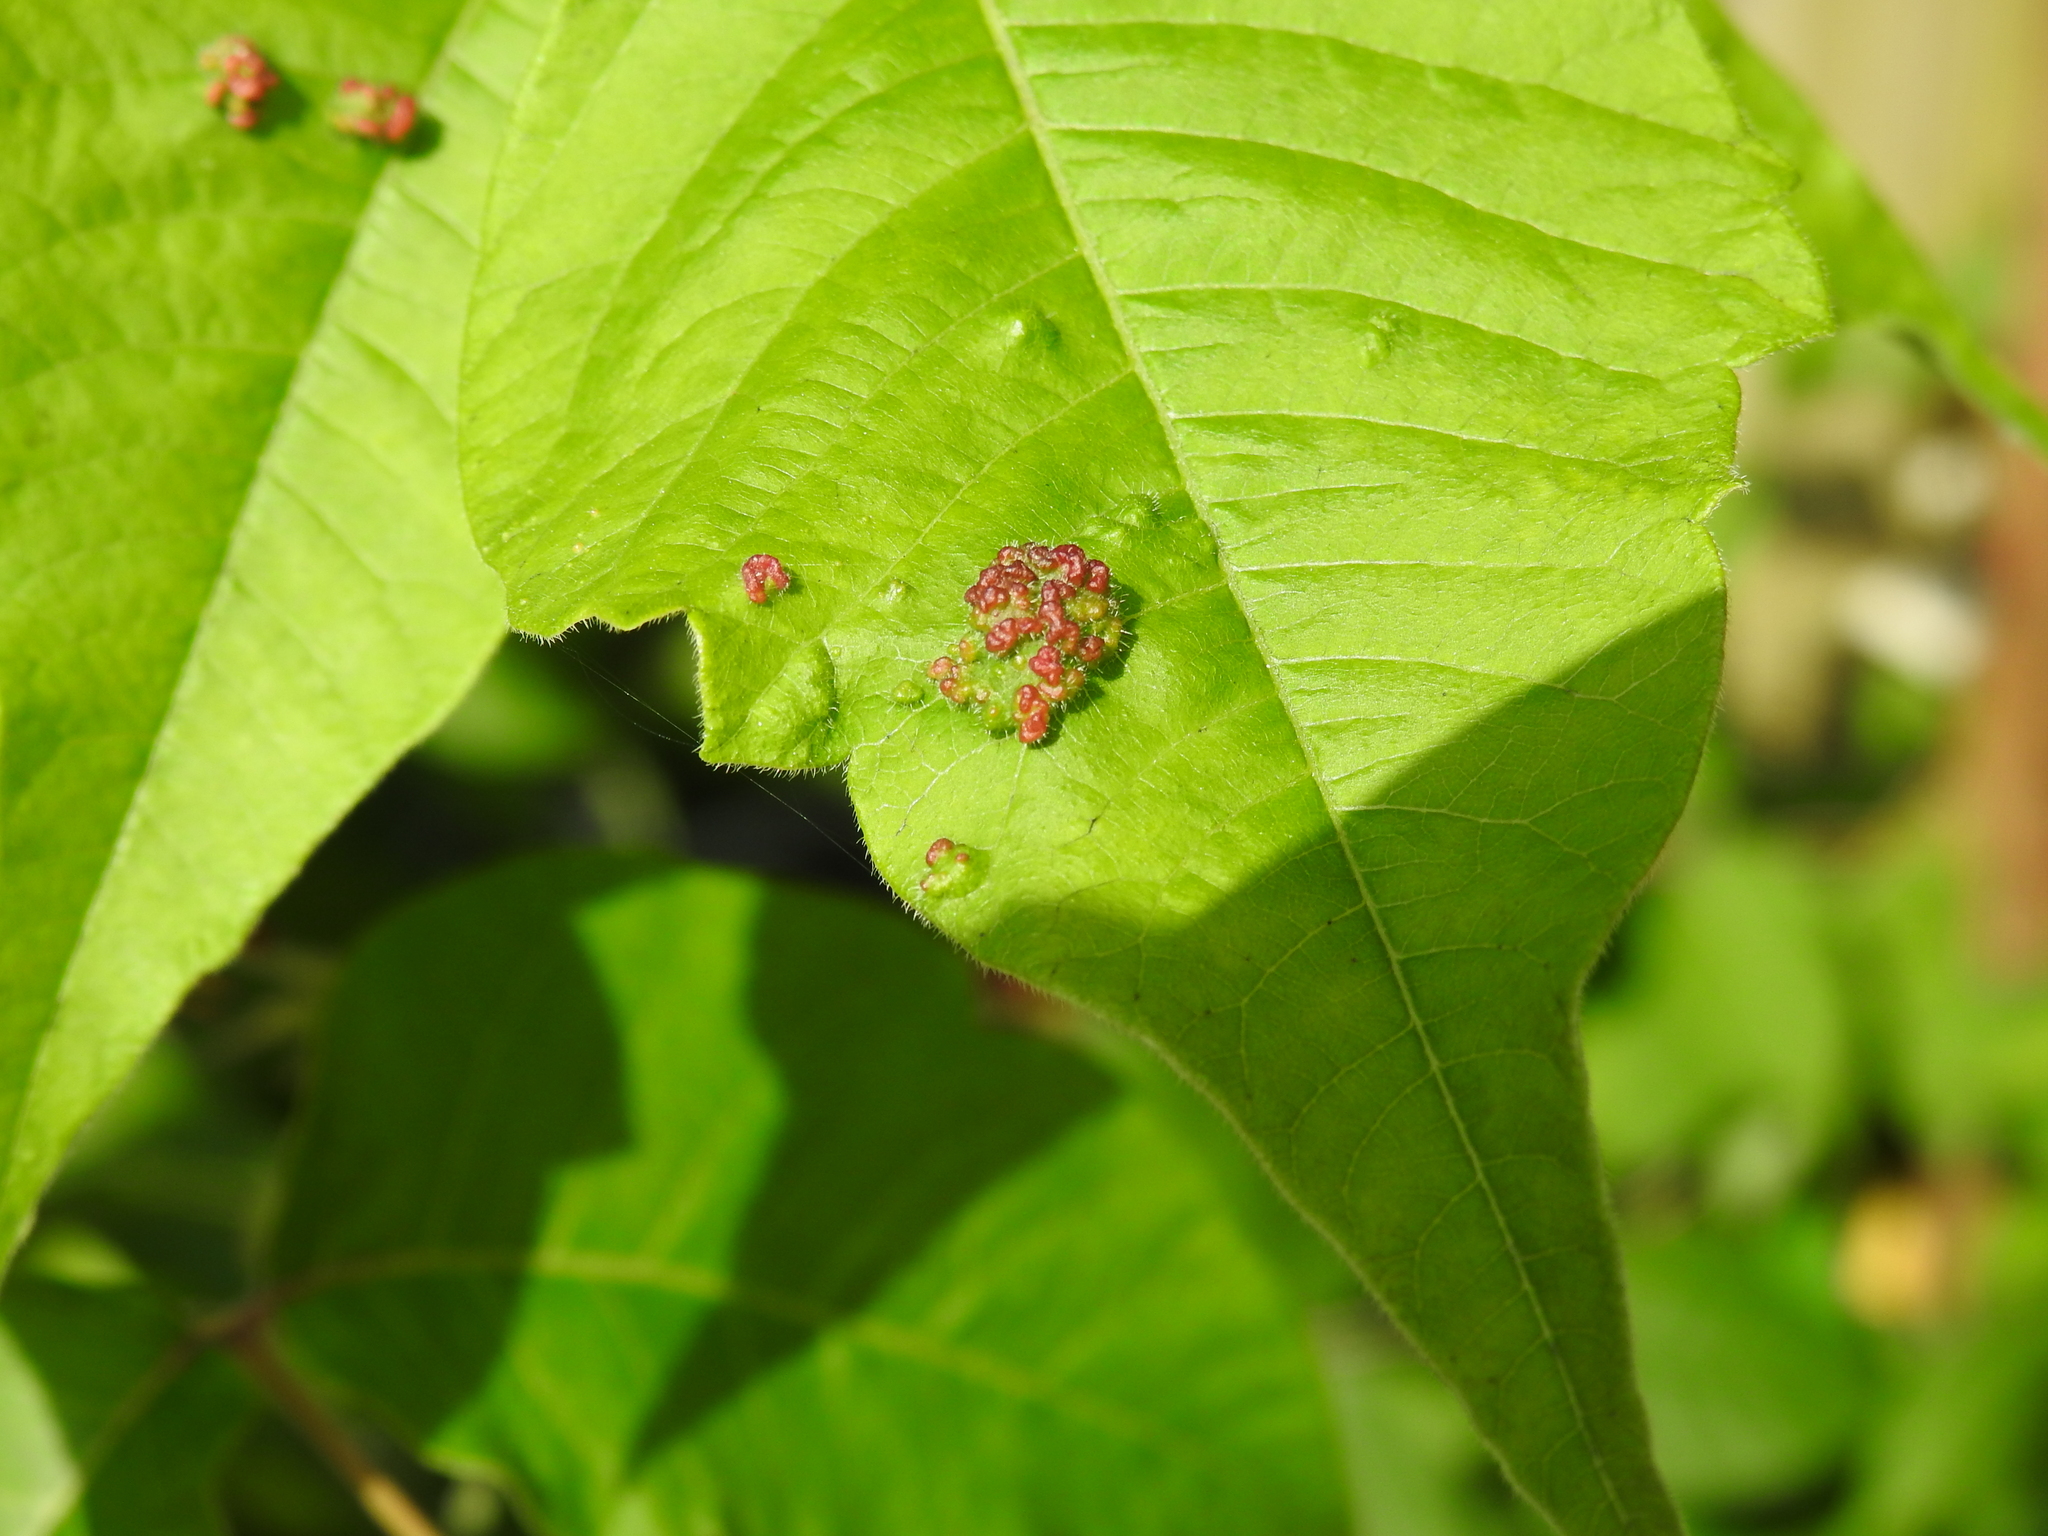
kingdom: Animalia
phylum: Arthropoda
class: Arachnida
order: Trombidiformes
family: Eriophyidae
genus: Aculops
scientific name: Aculops
